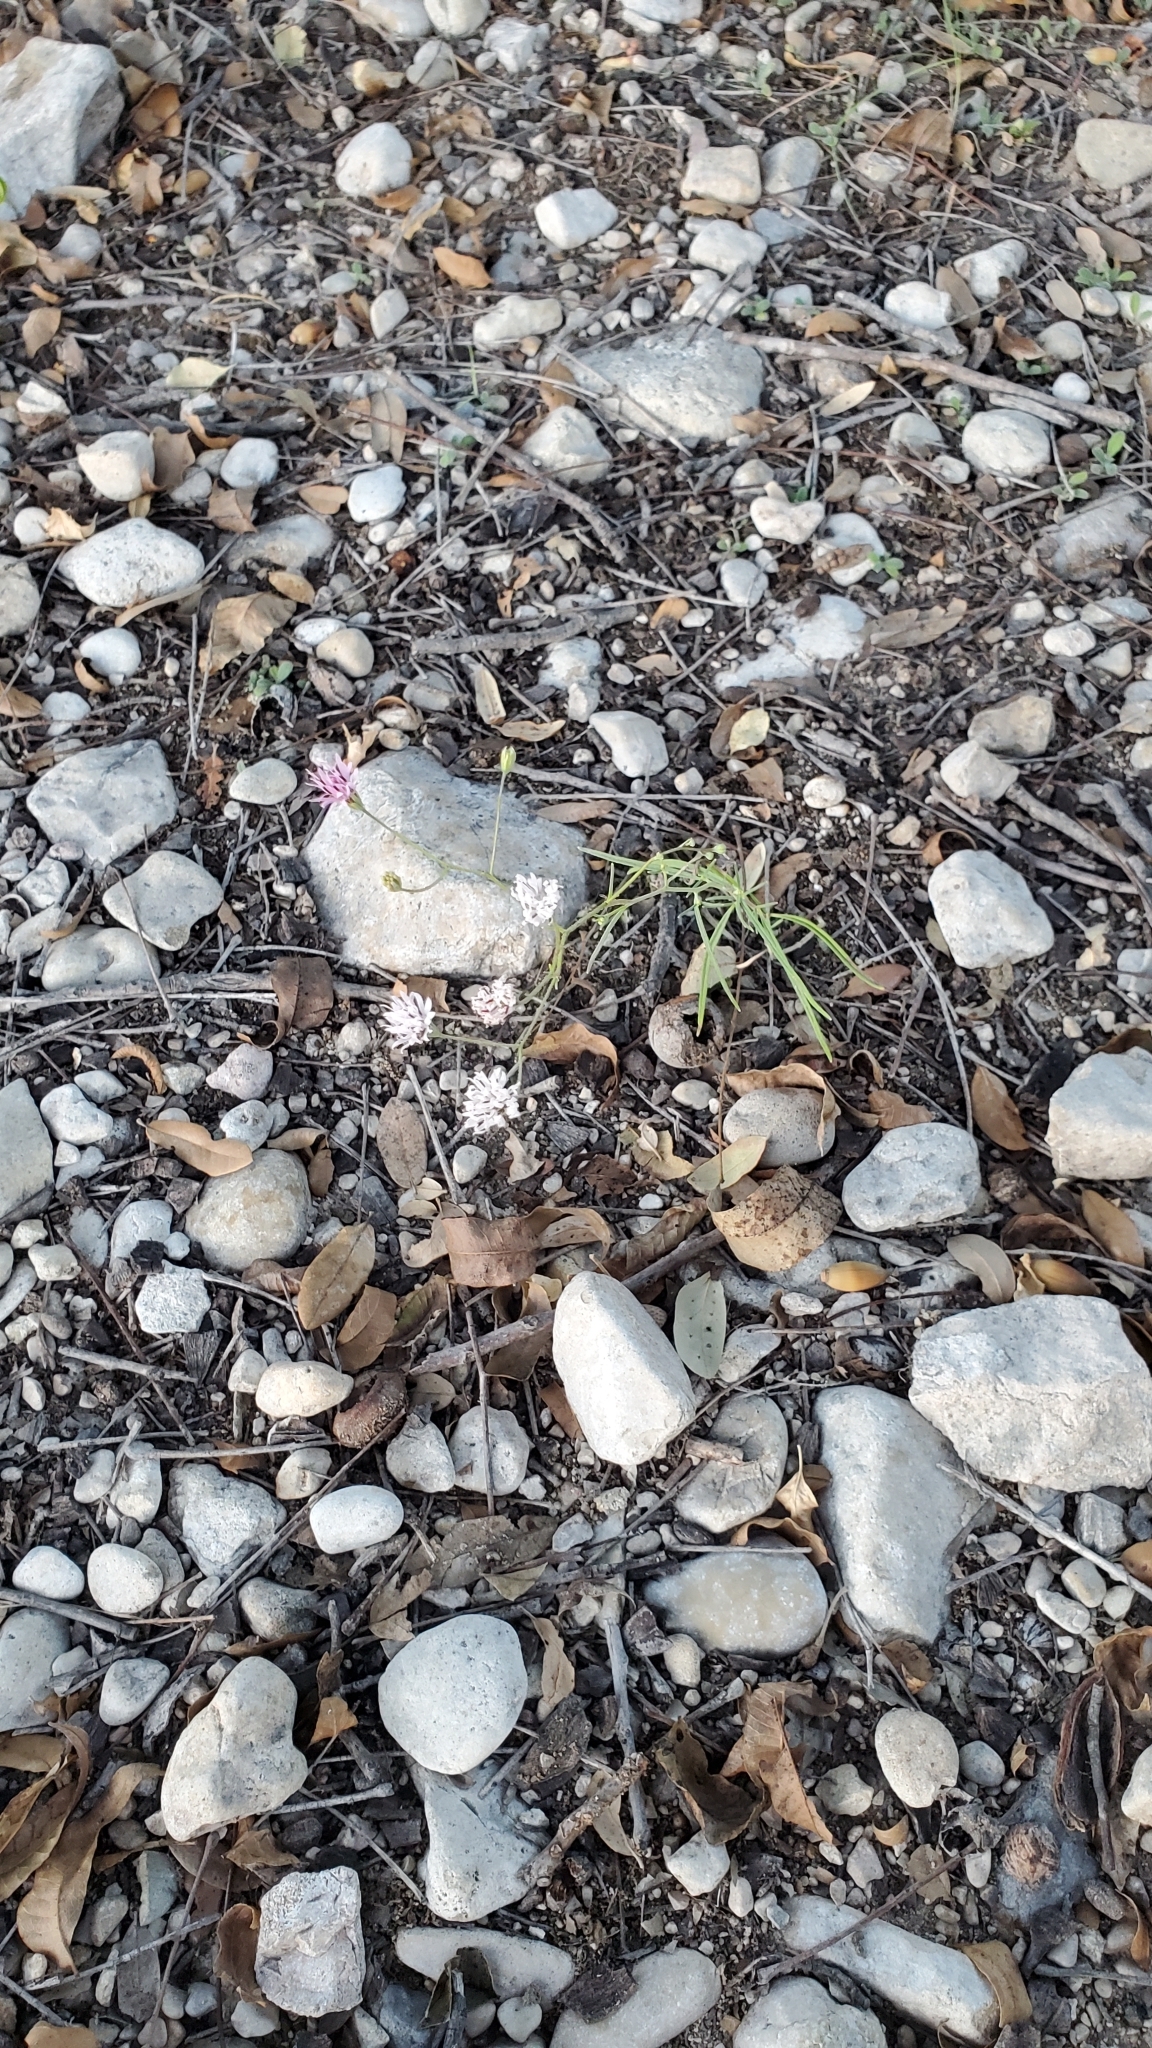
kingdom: Plantae
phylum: Tracheophyta
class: Magnoliopsida
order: Asterales
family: Asteraceae
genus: Palafoxia
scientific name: Palafoxia callosa
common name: Small palafox
